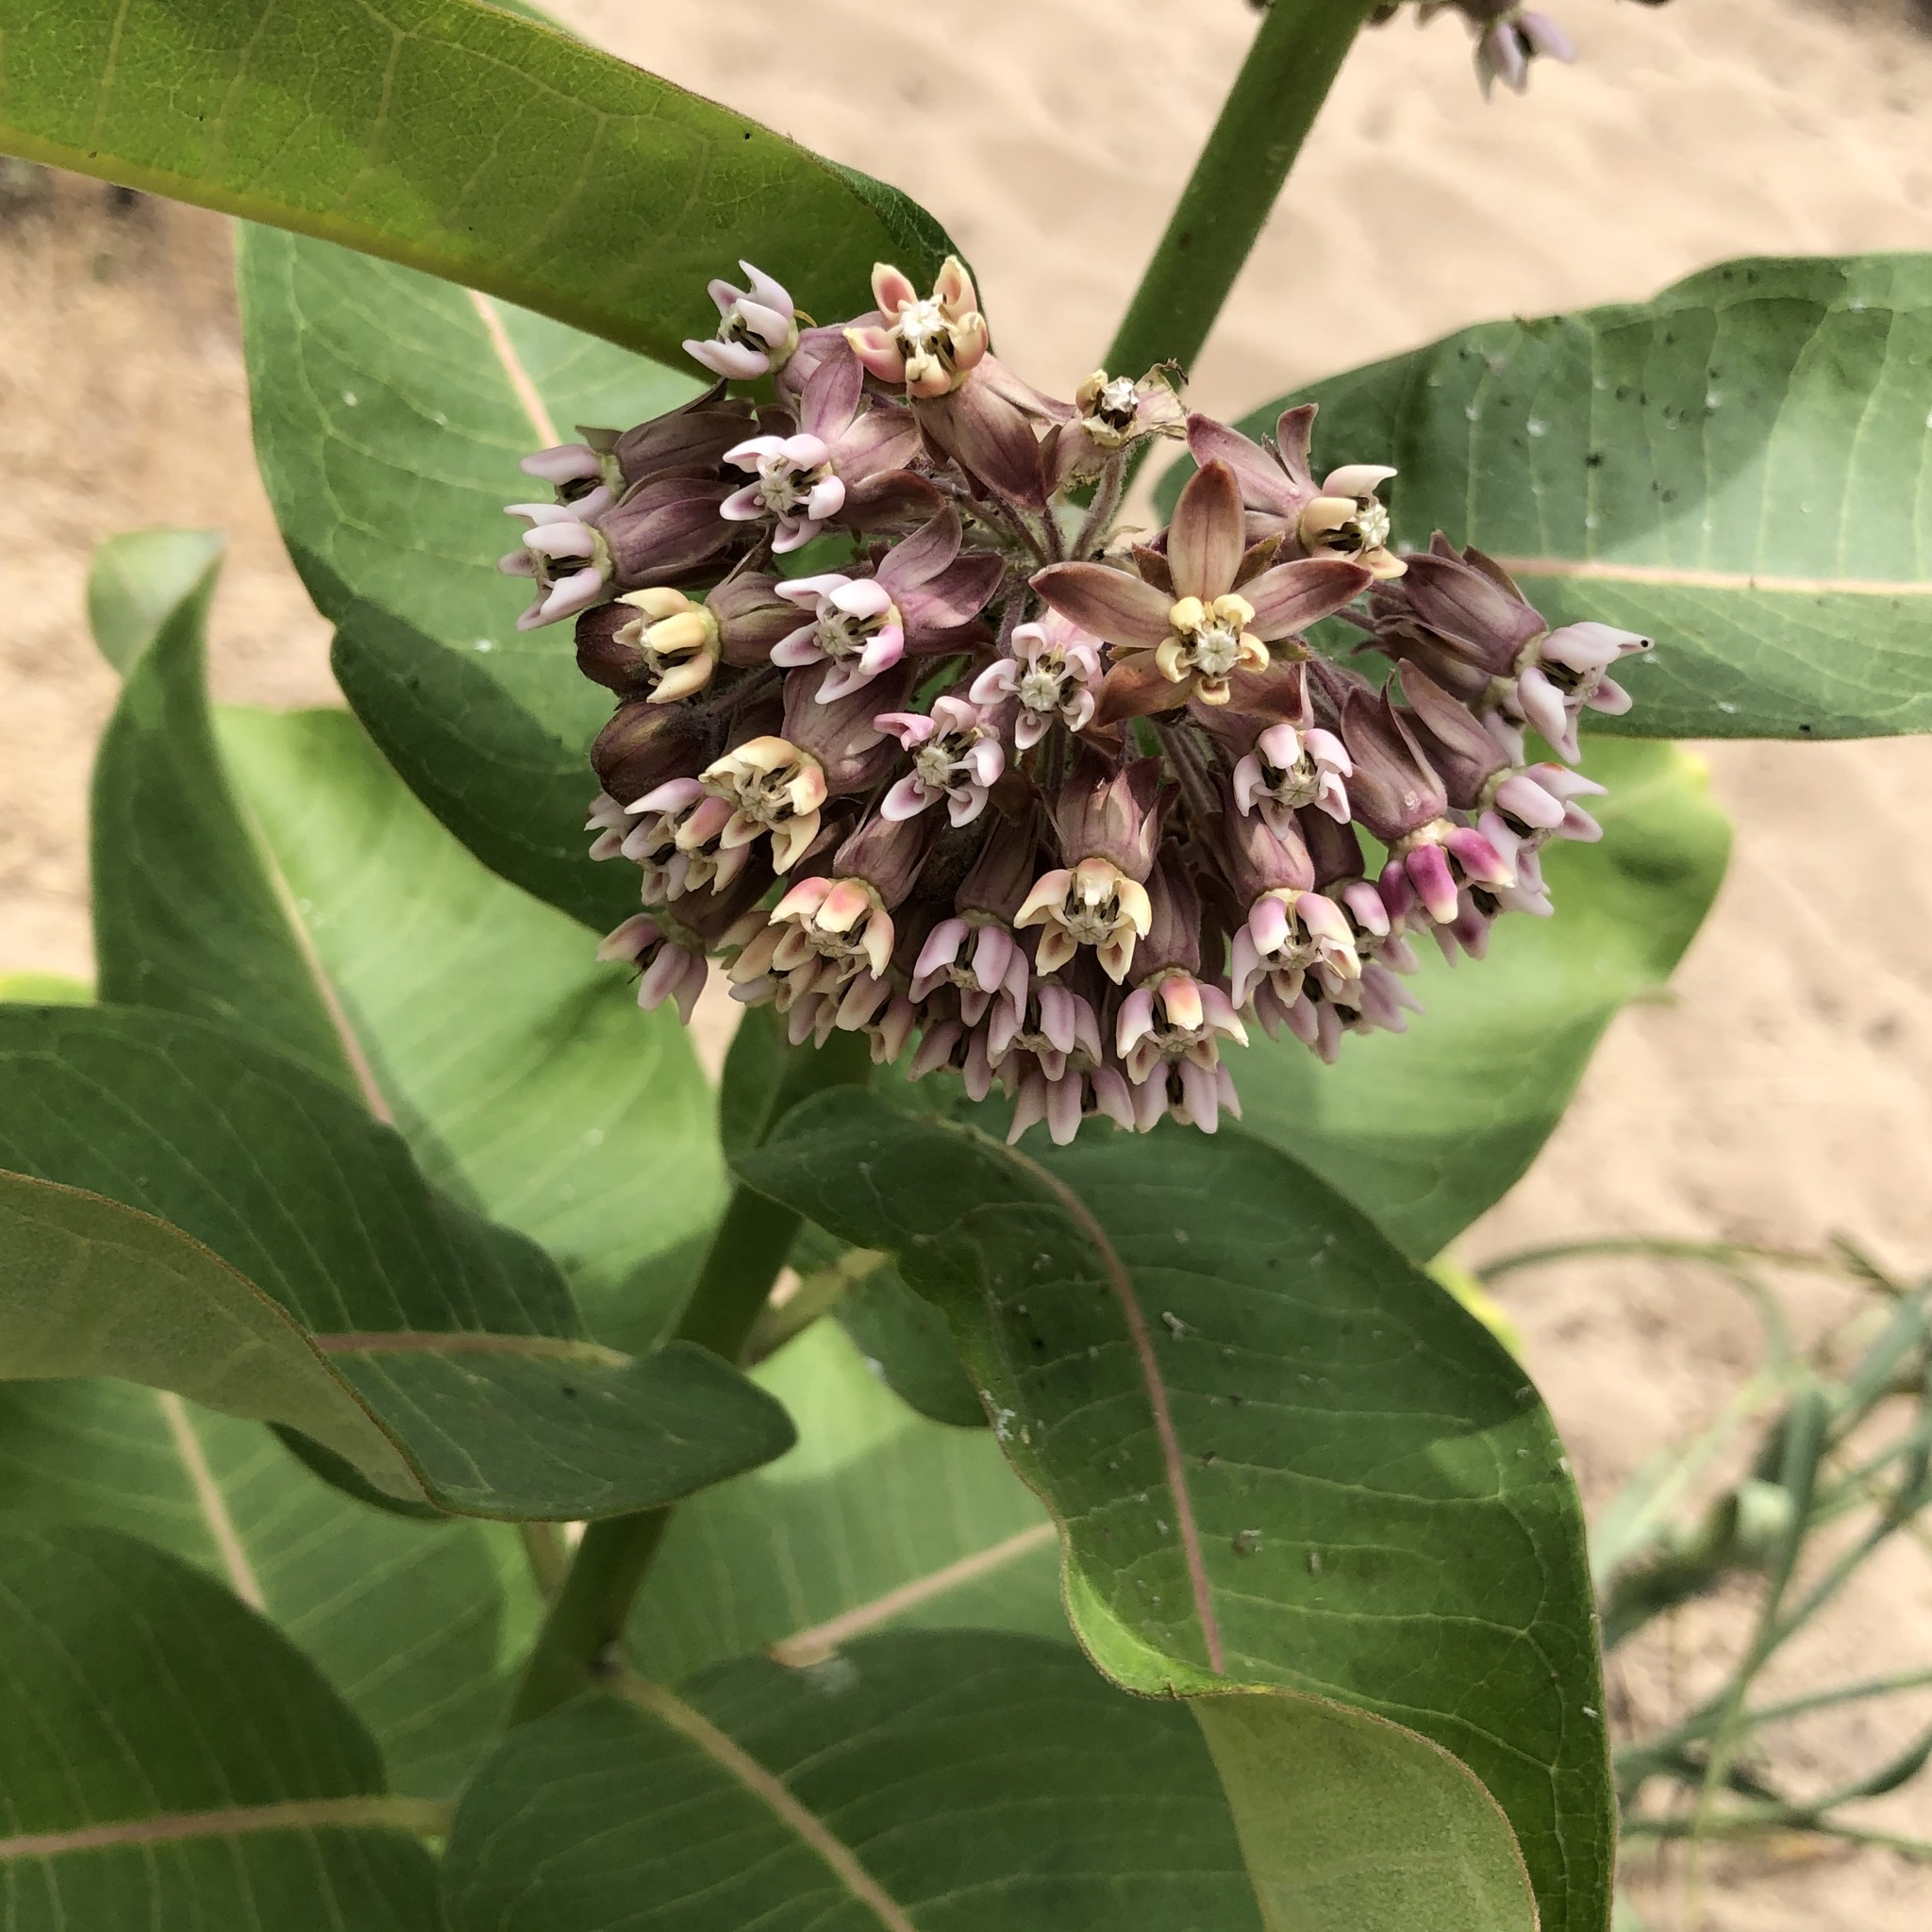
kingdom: Plantae
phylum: Tracheophyta
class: Magnoliopsida
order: Gentianales
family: Apocynaceae
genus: Asclepias
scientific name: Asclepias syriaca
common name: Common milkweed
